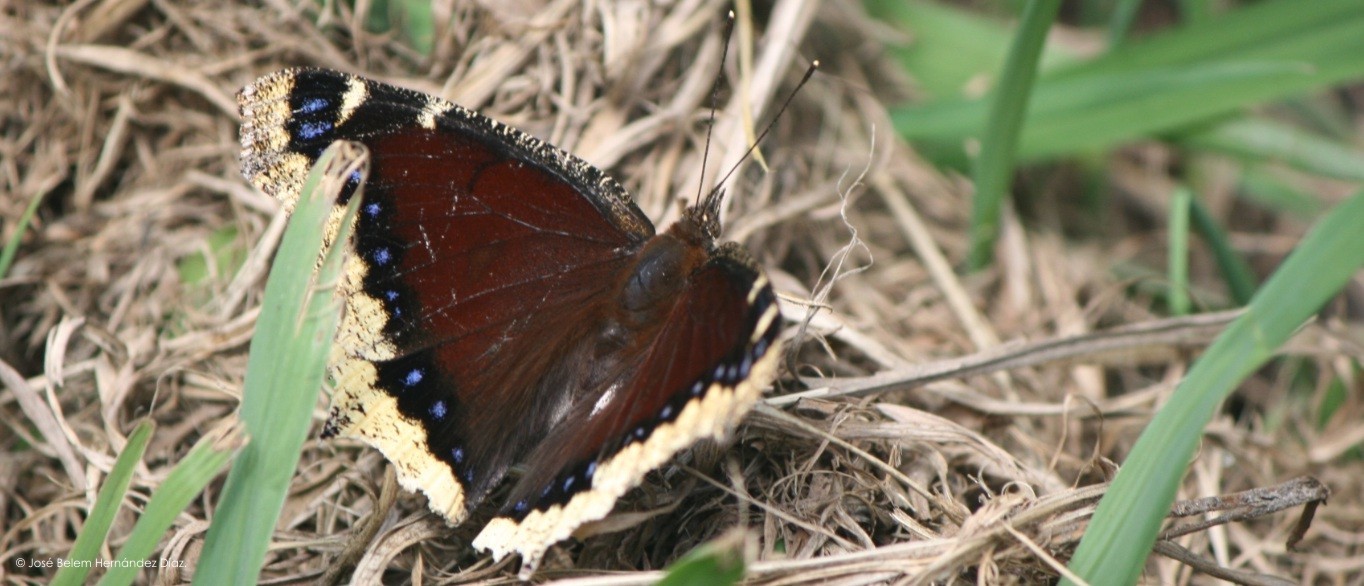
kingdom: Animalia
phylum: Arthropoda
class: Insecta
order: Lepidoptera
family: Nymphalidae
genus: Nymphalis
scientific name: Nymphalis antiopa
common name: Camberwell beauty
